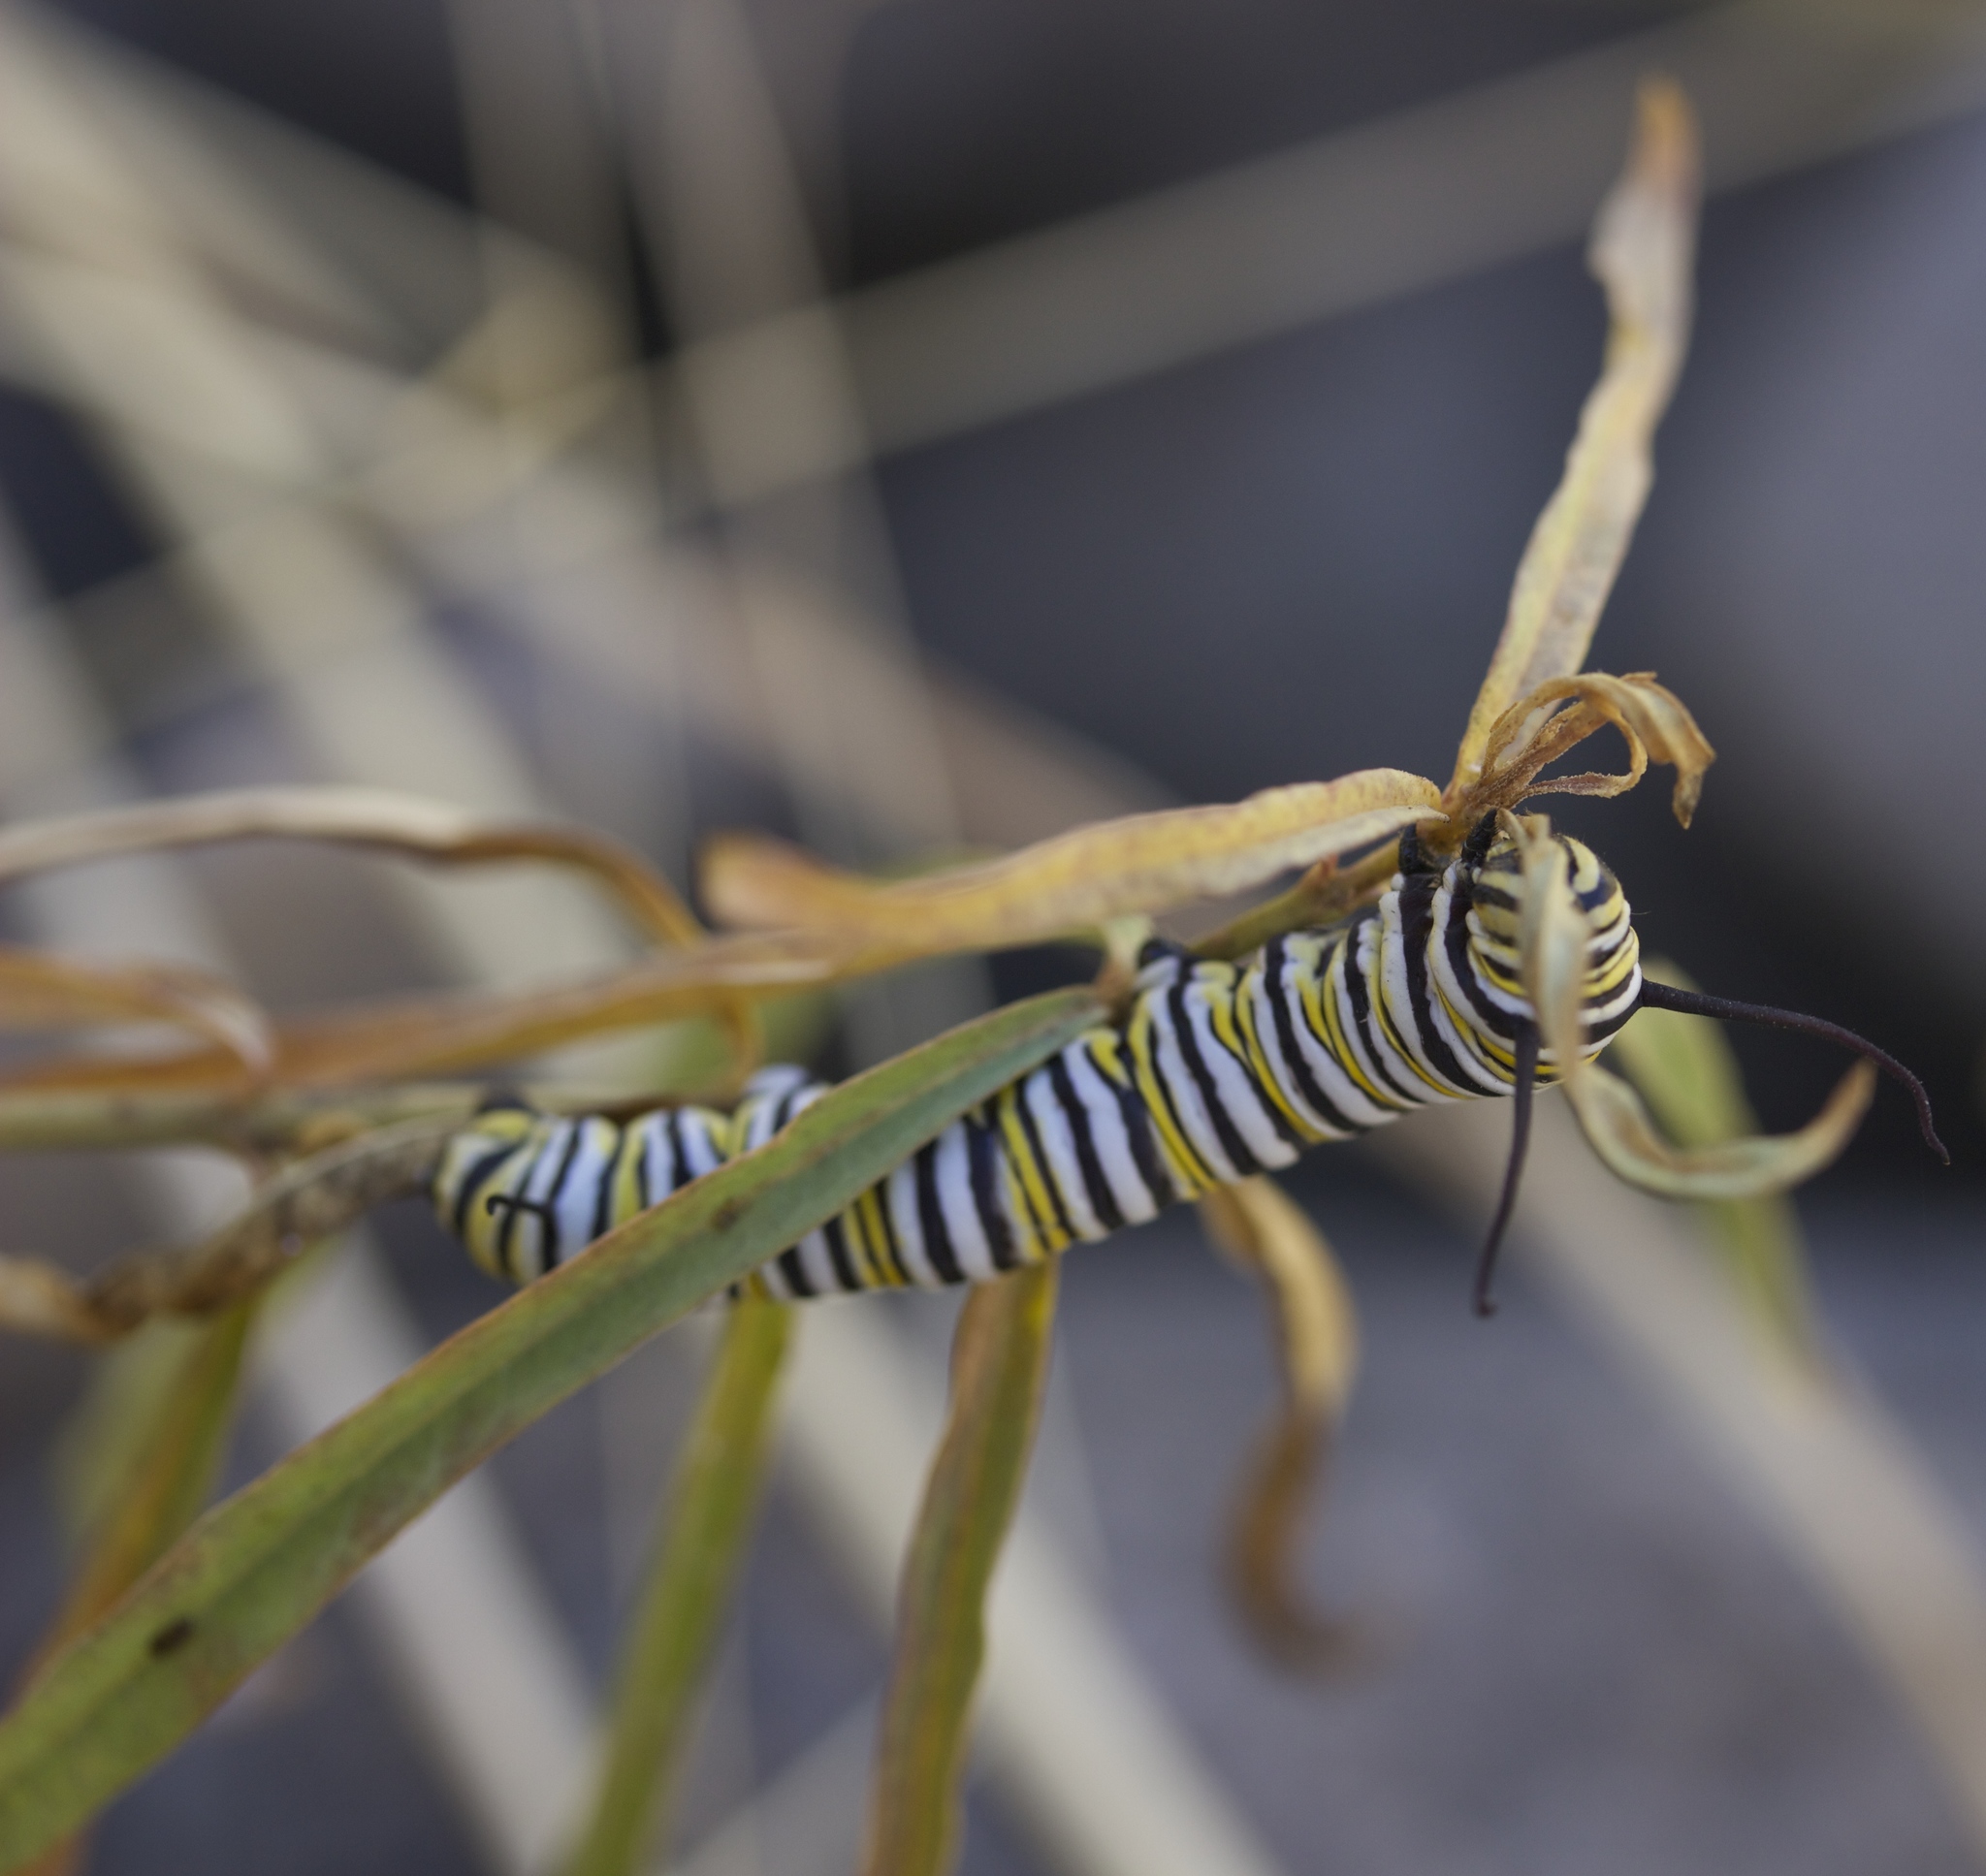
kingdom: Animalia
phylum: Arthropoda
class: Insecta
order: Lepidoptera
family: Nymphalidae
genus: Danaus
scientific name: Danaus plexippus
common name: Monarch
